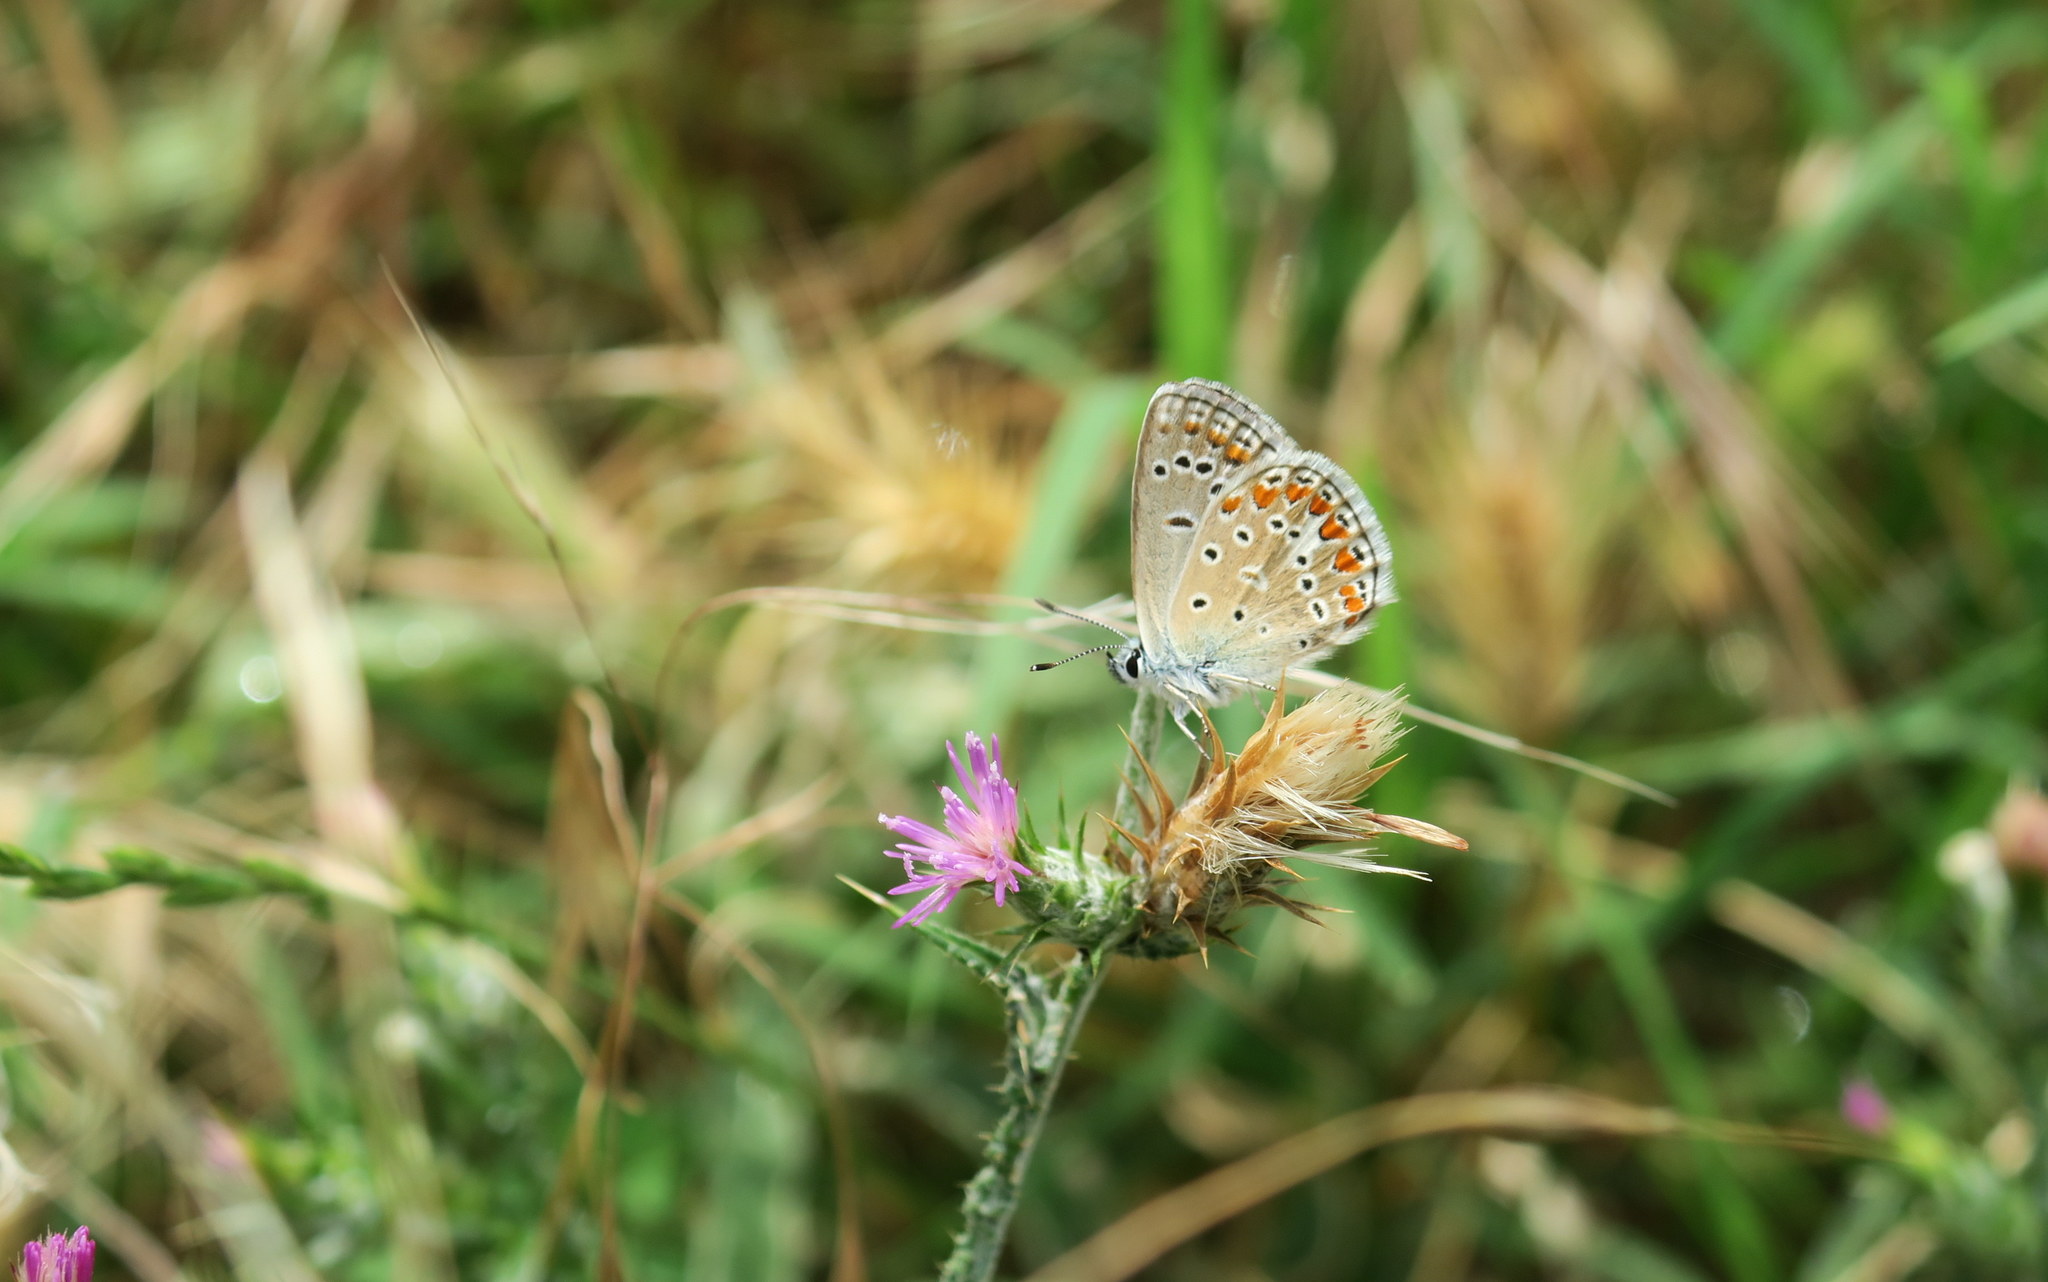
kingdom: Animalia
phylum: Arthropoda
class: Insecta
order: Lepidoptera
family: Lycaenidae
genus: Polyommatus
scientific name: Polyommatus thersites
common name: Chapman's blue
